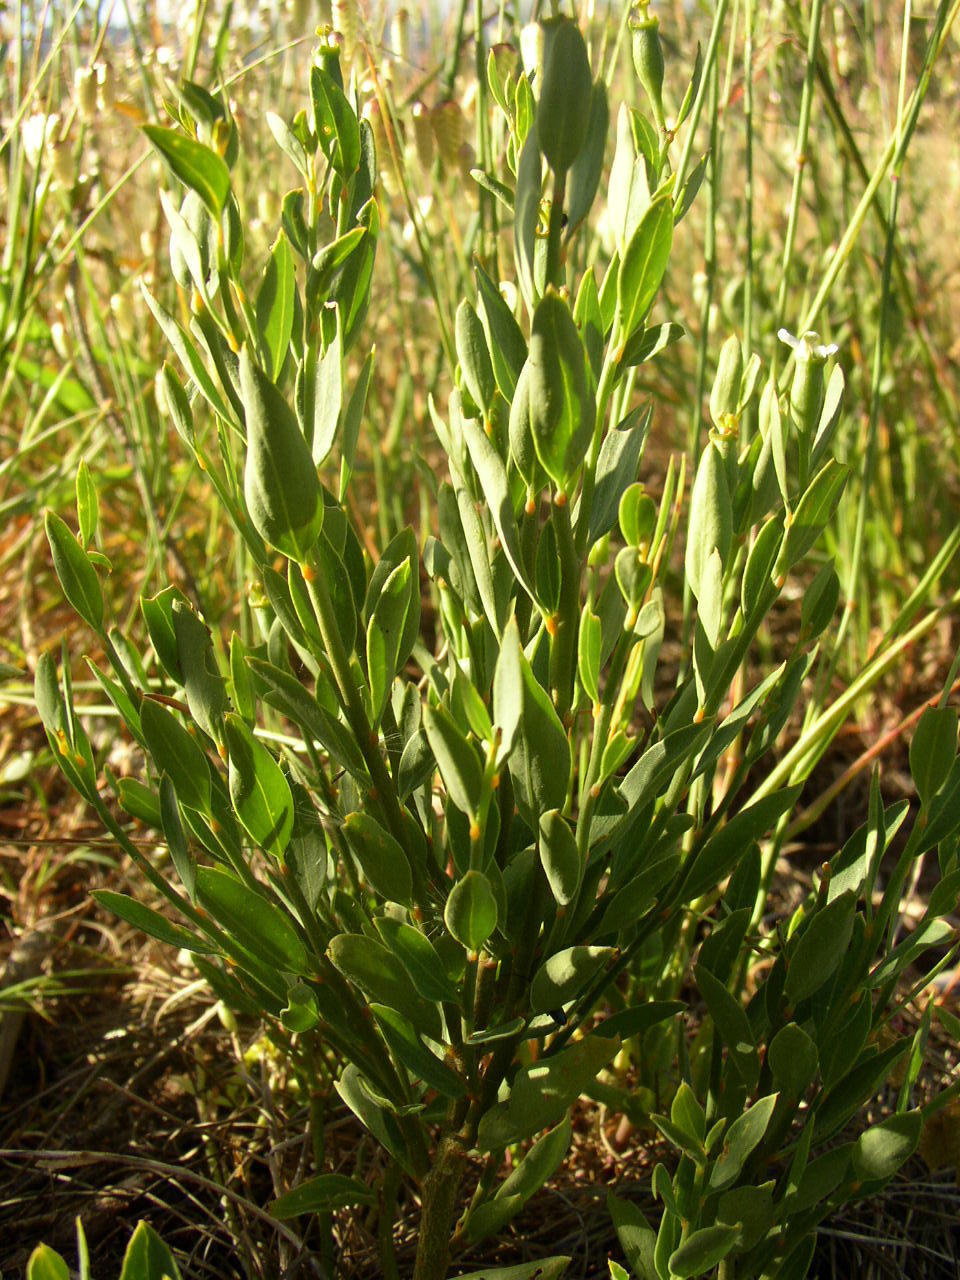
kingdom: Plantae
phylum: Tracheophyta
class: Magnoliopsida
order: Solanales
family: Montiniaceae
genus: Montinia
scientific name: Montinia caryophyllacea
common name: Wild clove-bush
